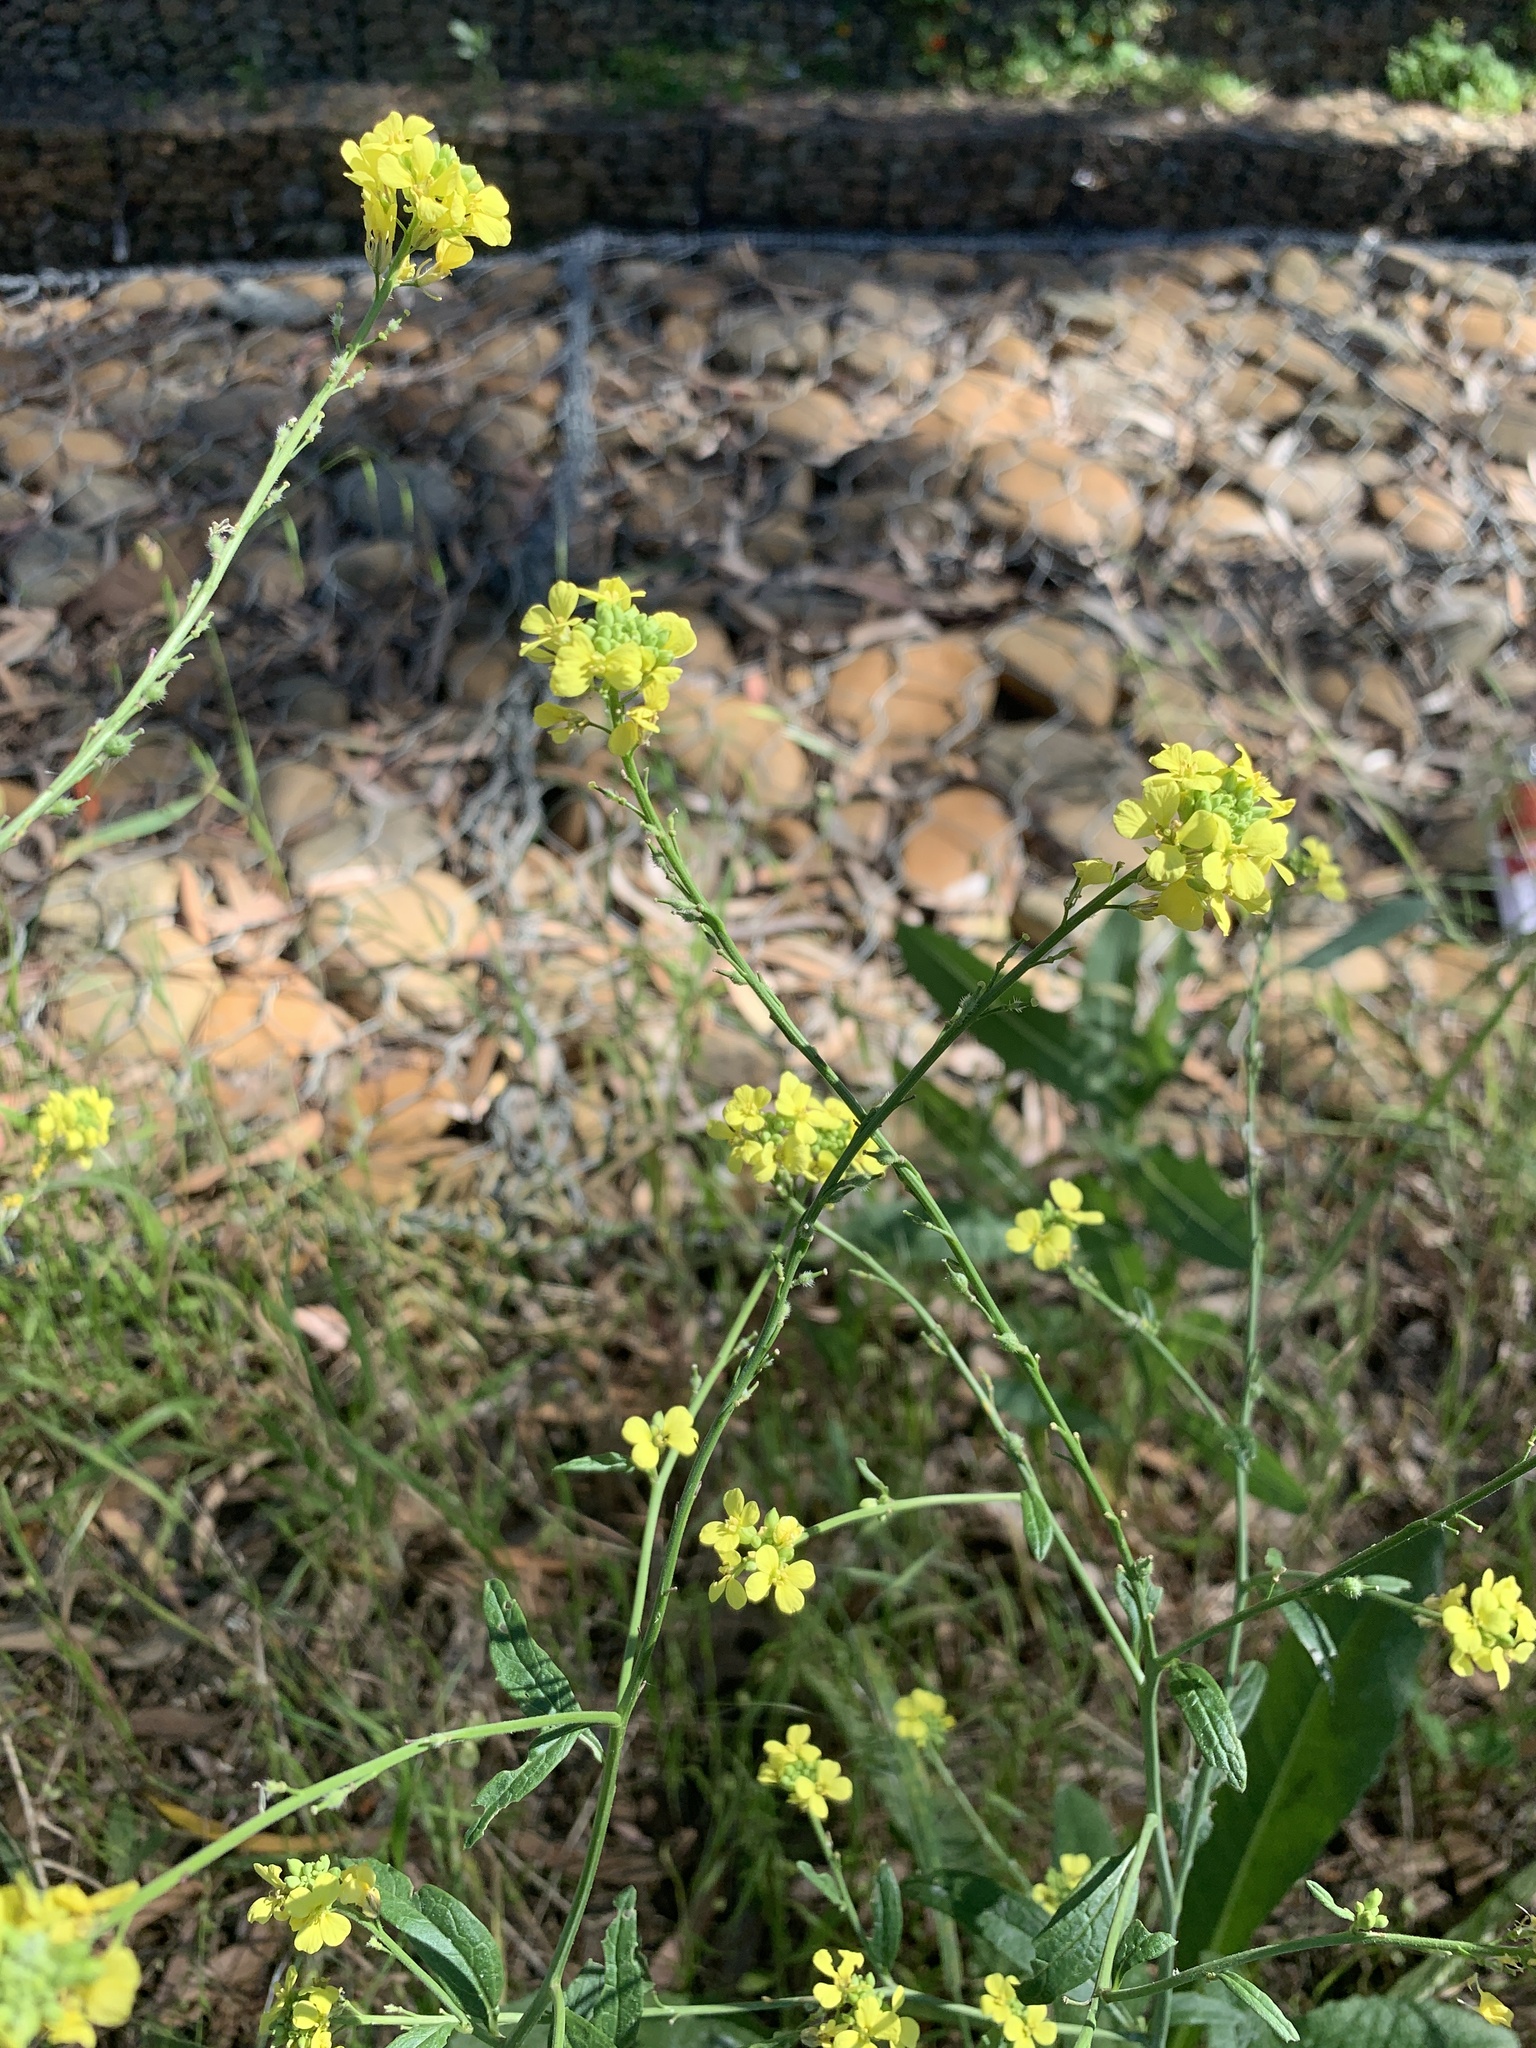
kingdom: Plantae
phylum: Tracheophyta
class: Magnoliopsida
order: Brassicales
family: Brassicaceae
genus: Rapistrum
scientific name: Rapistrum rugosum
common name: Annual bastardcabbage
